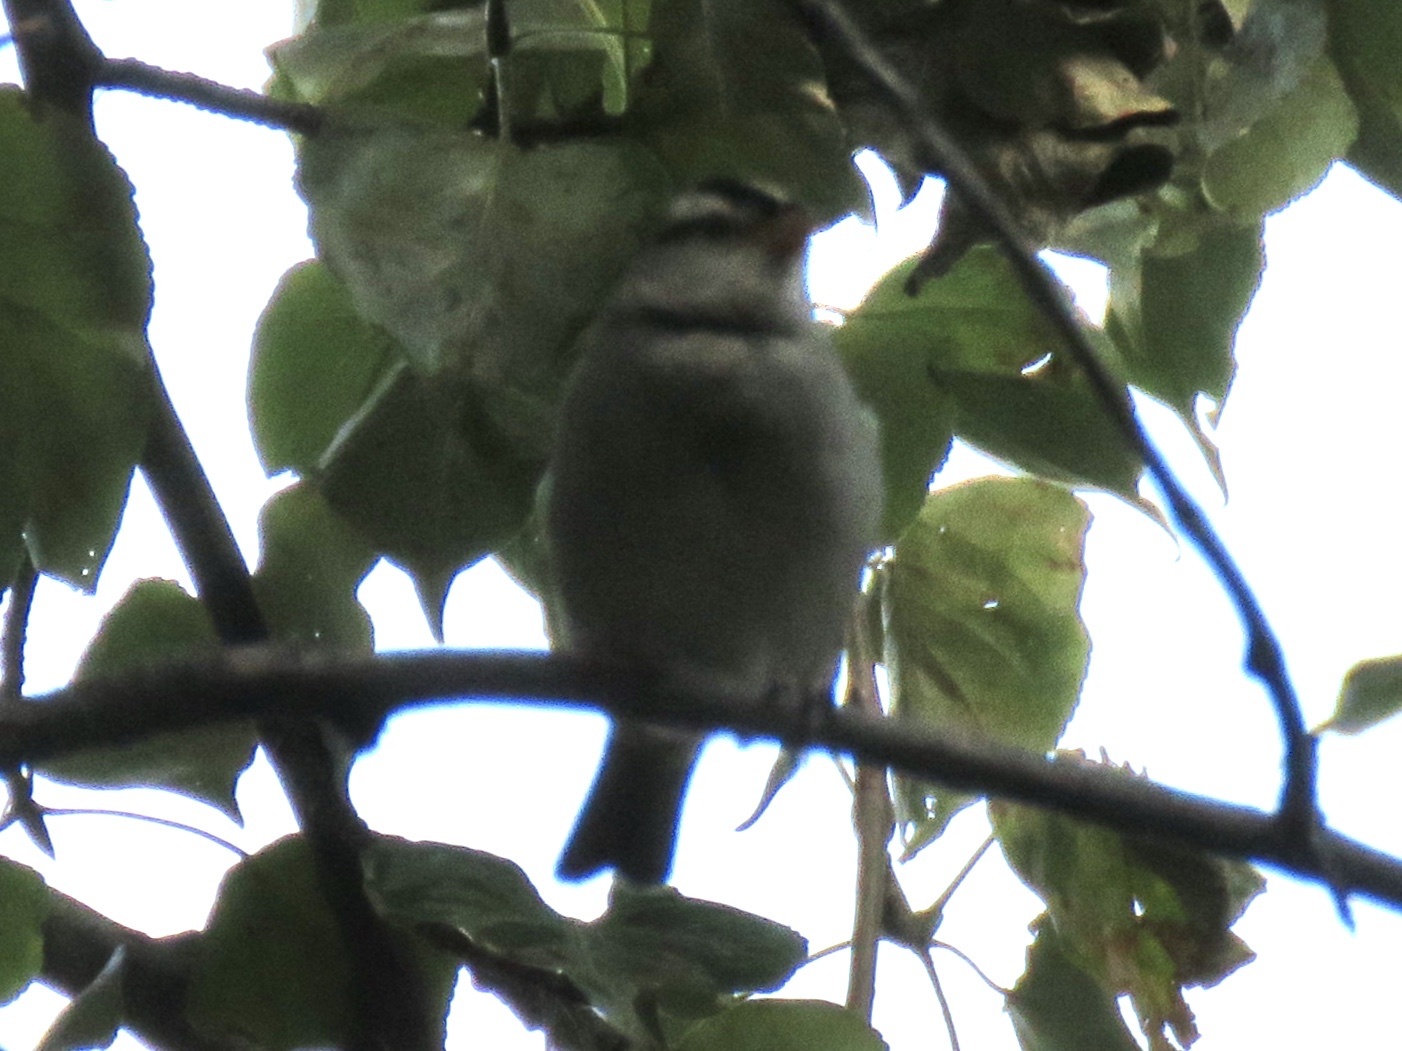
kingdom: Animalia
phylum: Chordata
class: Aves
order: Passeriformes
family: Passerellidae
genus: Zonotrichia
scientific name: Zonotrichia leucophrys
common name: White-crowned sparrow
